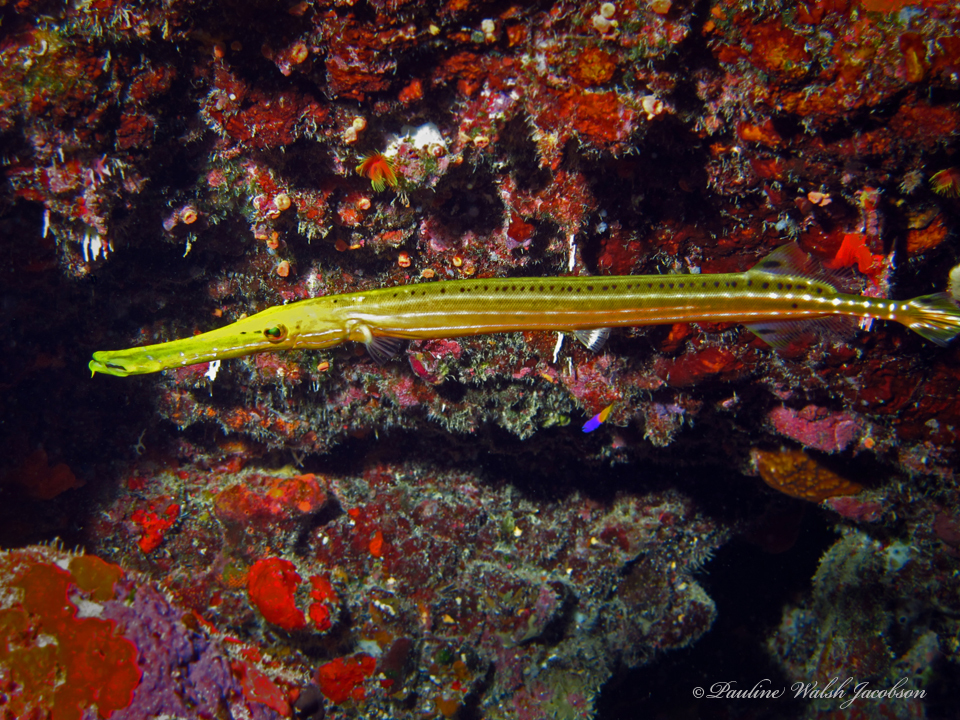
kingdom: Animalia
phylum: Chordata
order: Syngnathiformes
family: Aulostomidae
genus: Aulostomus
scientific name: Aulostomus maculatus
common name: West atlantic trumpetfish
